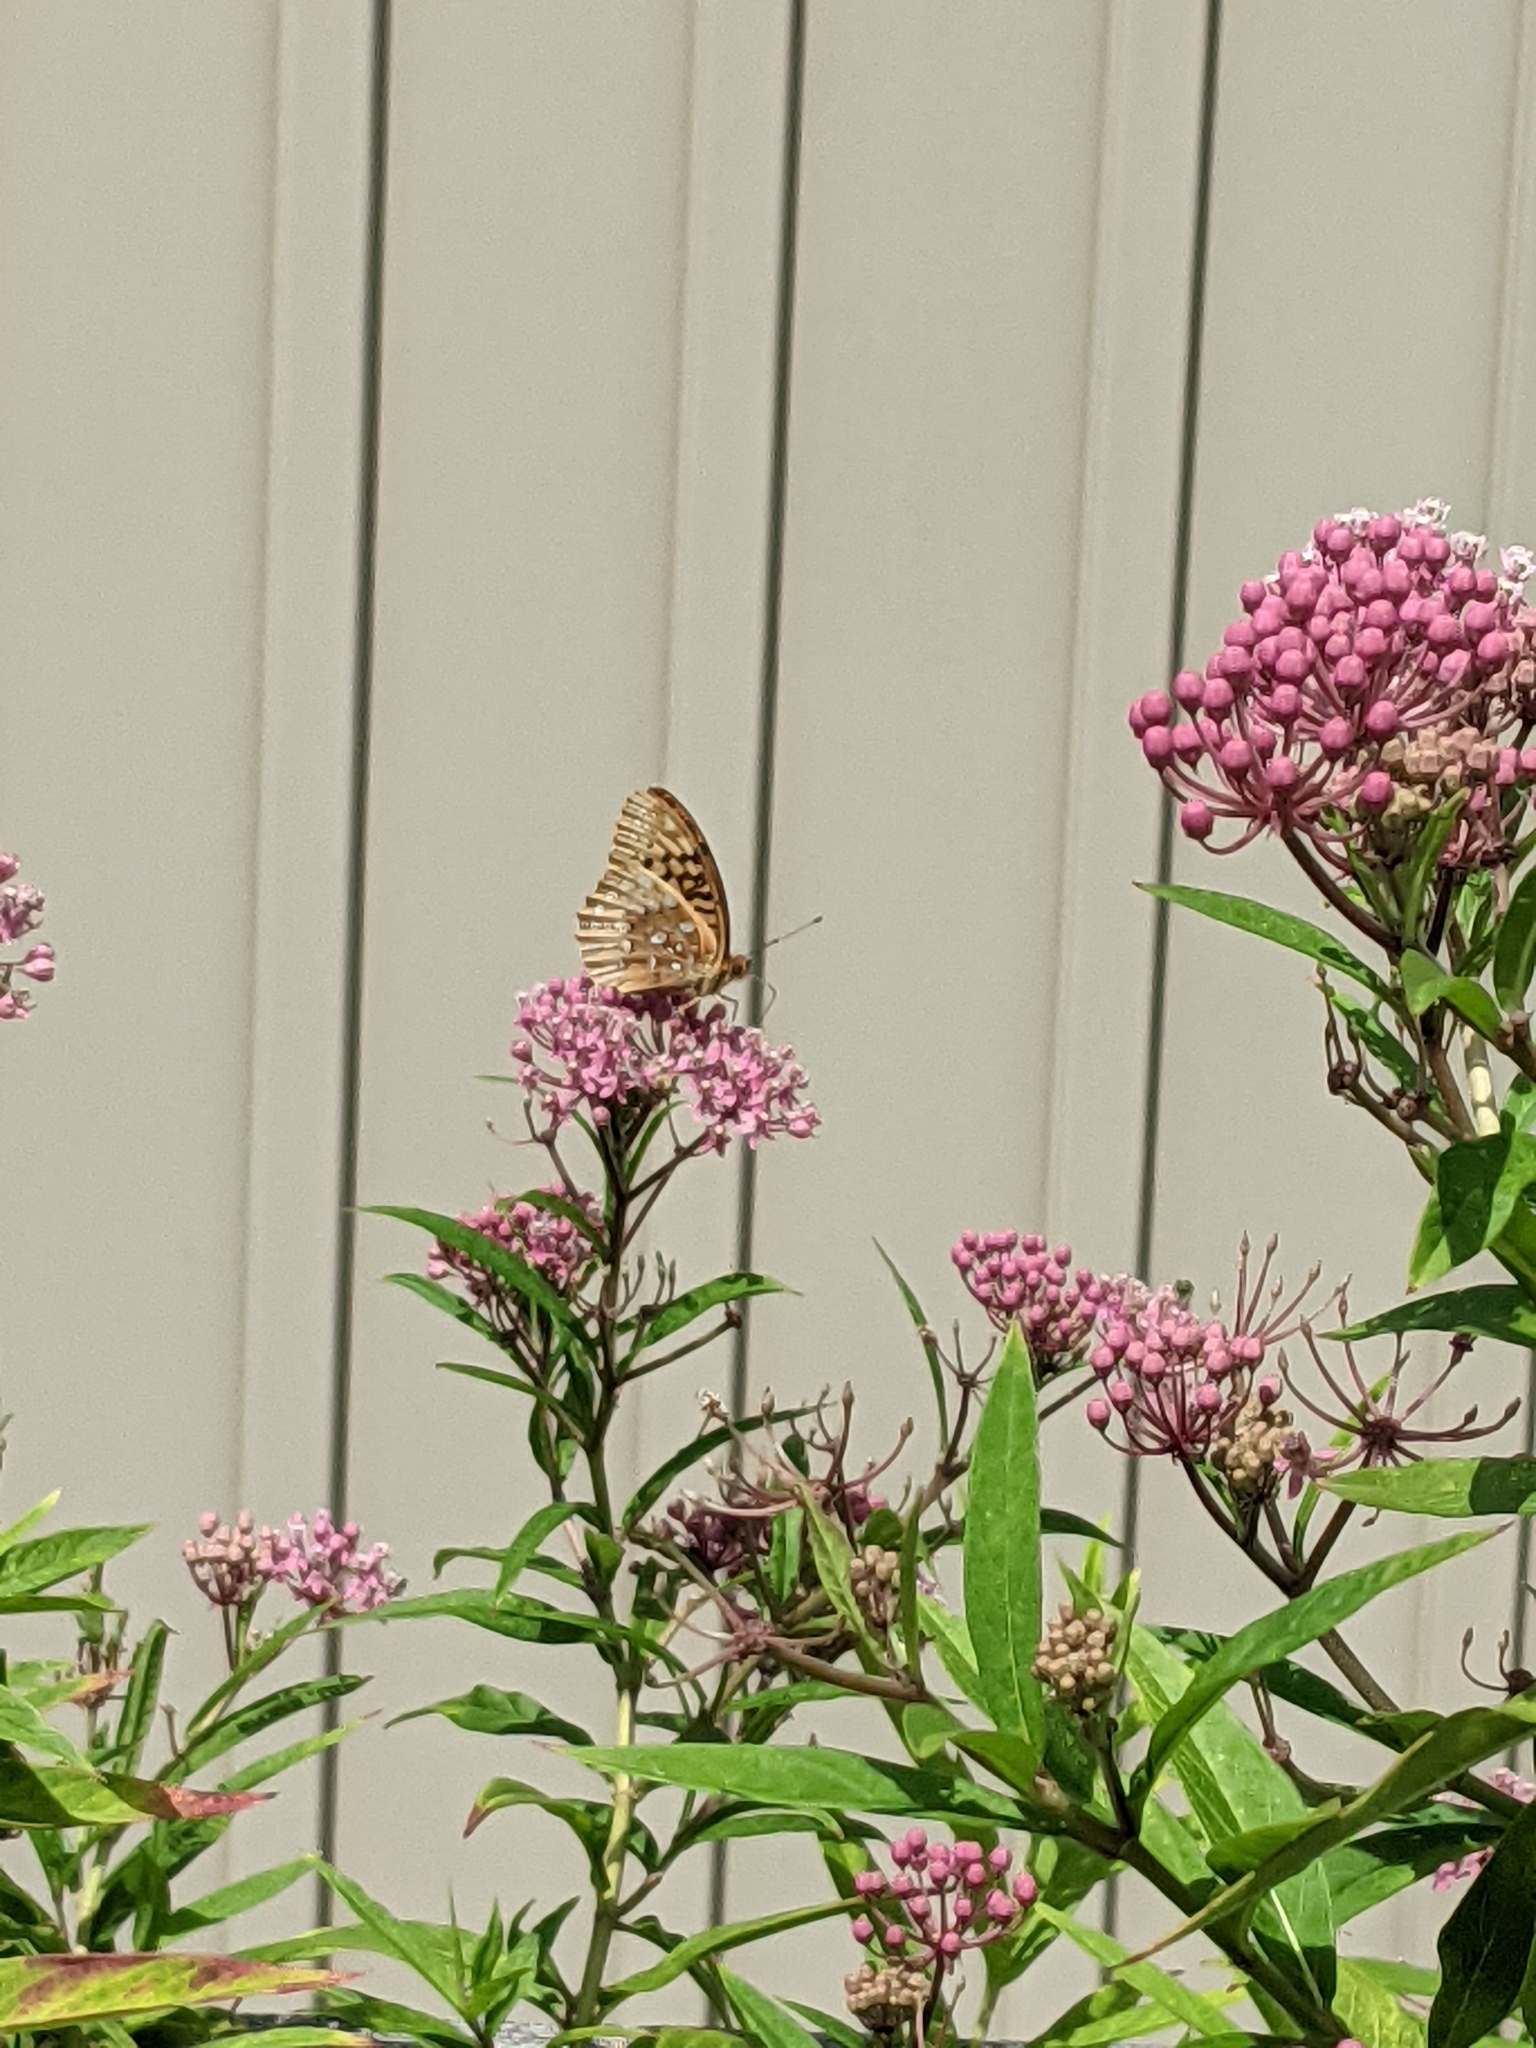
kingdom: Animalia
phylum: Arthropoda
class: Insecta
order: Lepidoptera
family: Nymphalidae
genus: Speyeria
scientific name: Speyeria cybele
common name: Great spangled fritillary
